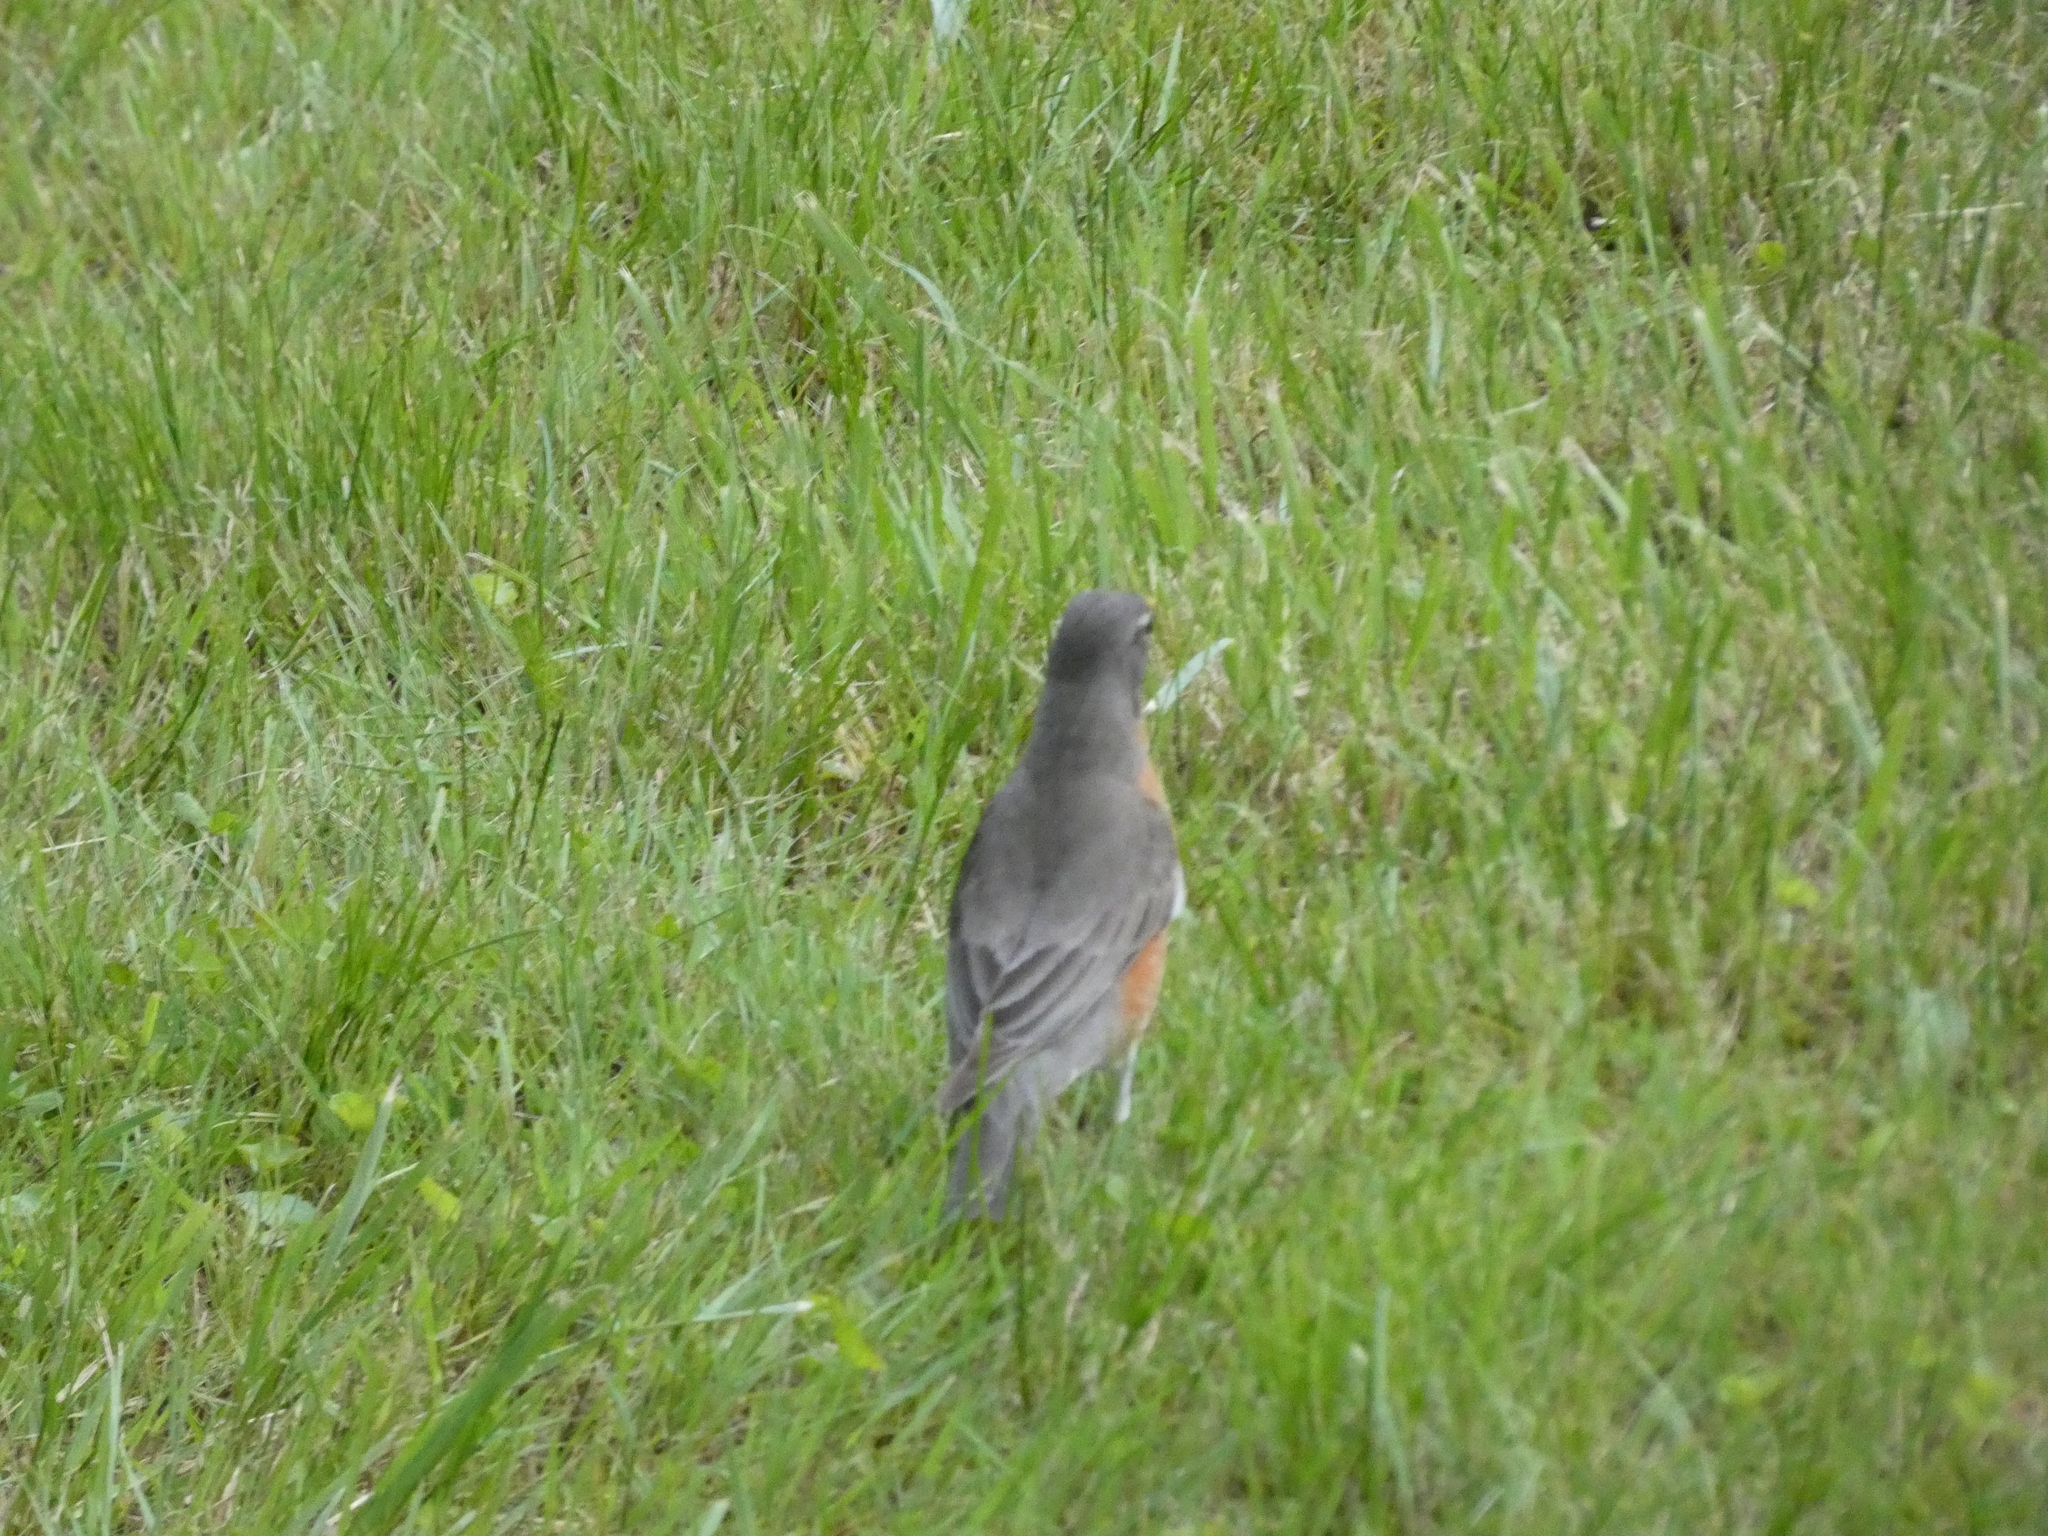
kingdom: Animalia
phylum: Chordata
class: Aves
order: Passeriformes
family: Turdidae
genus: Turdus
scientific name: Turdus migratorius
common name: American robin
